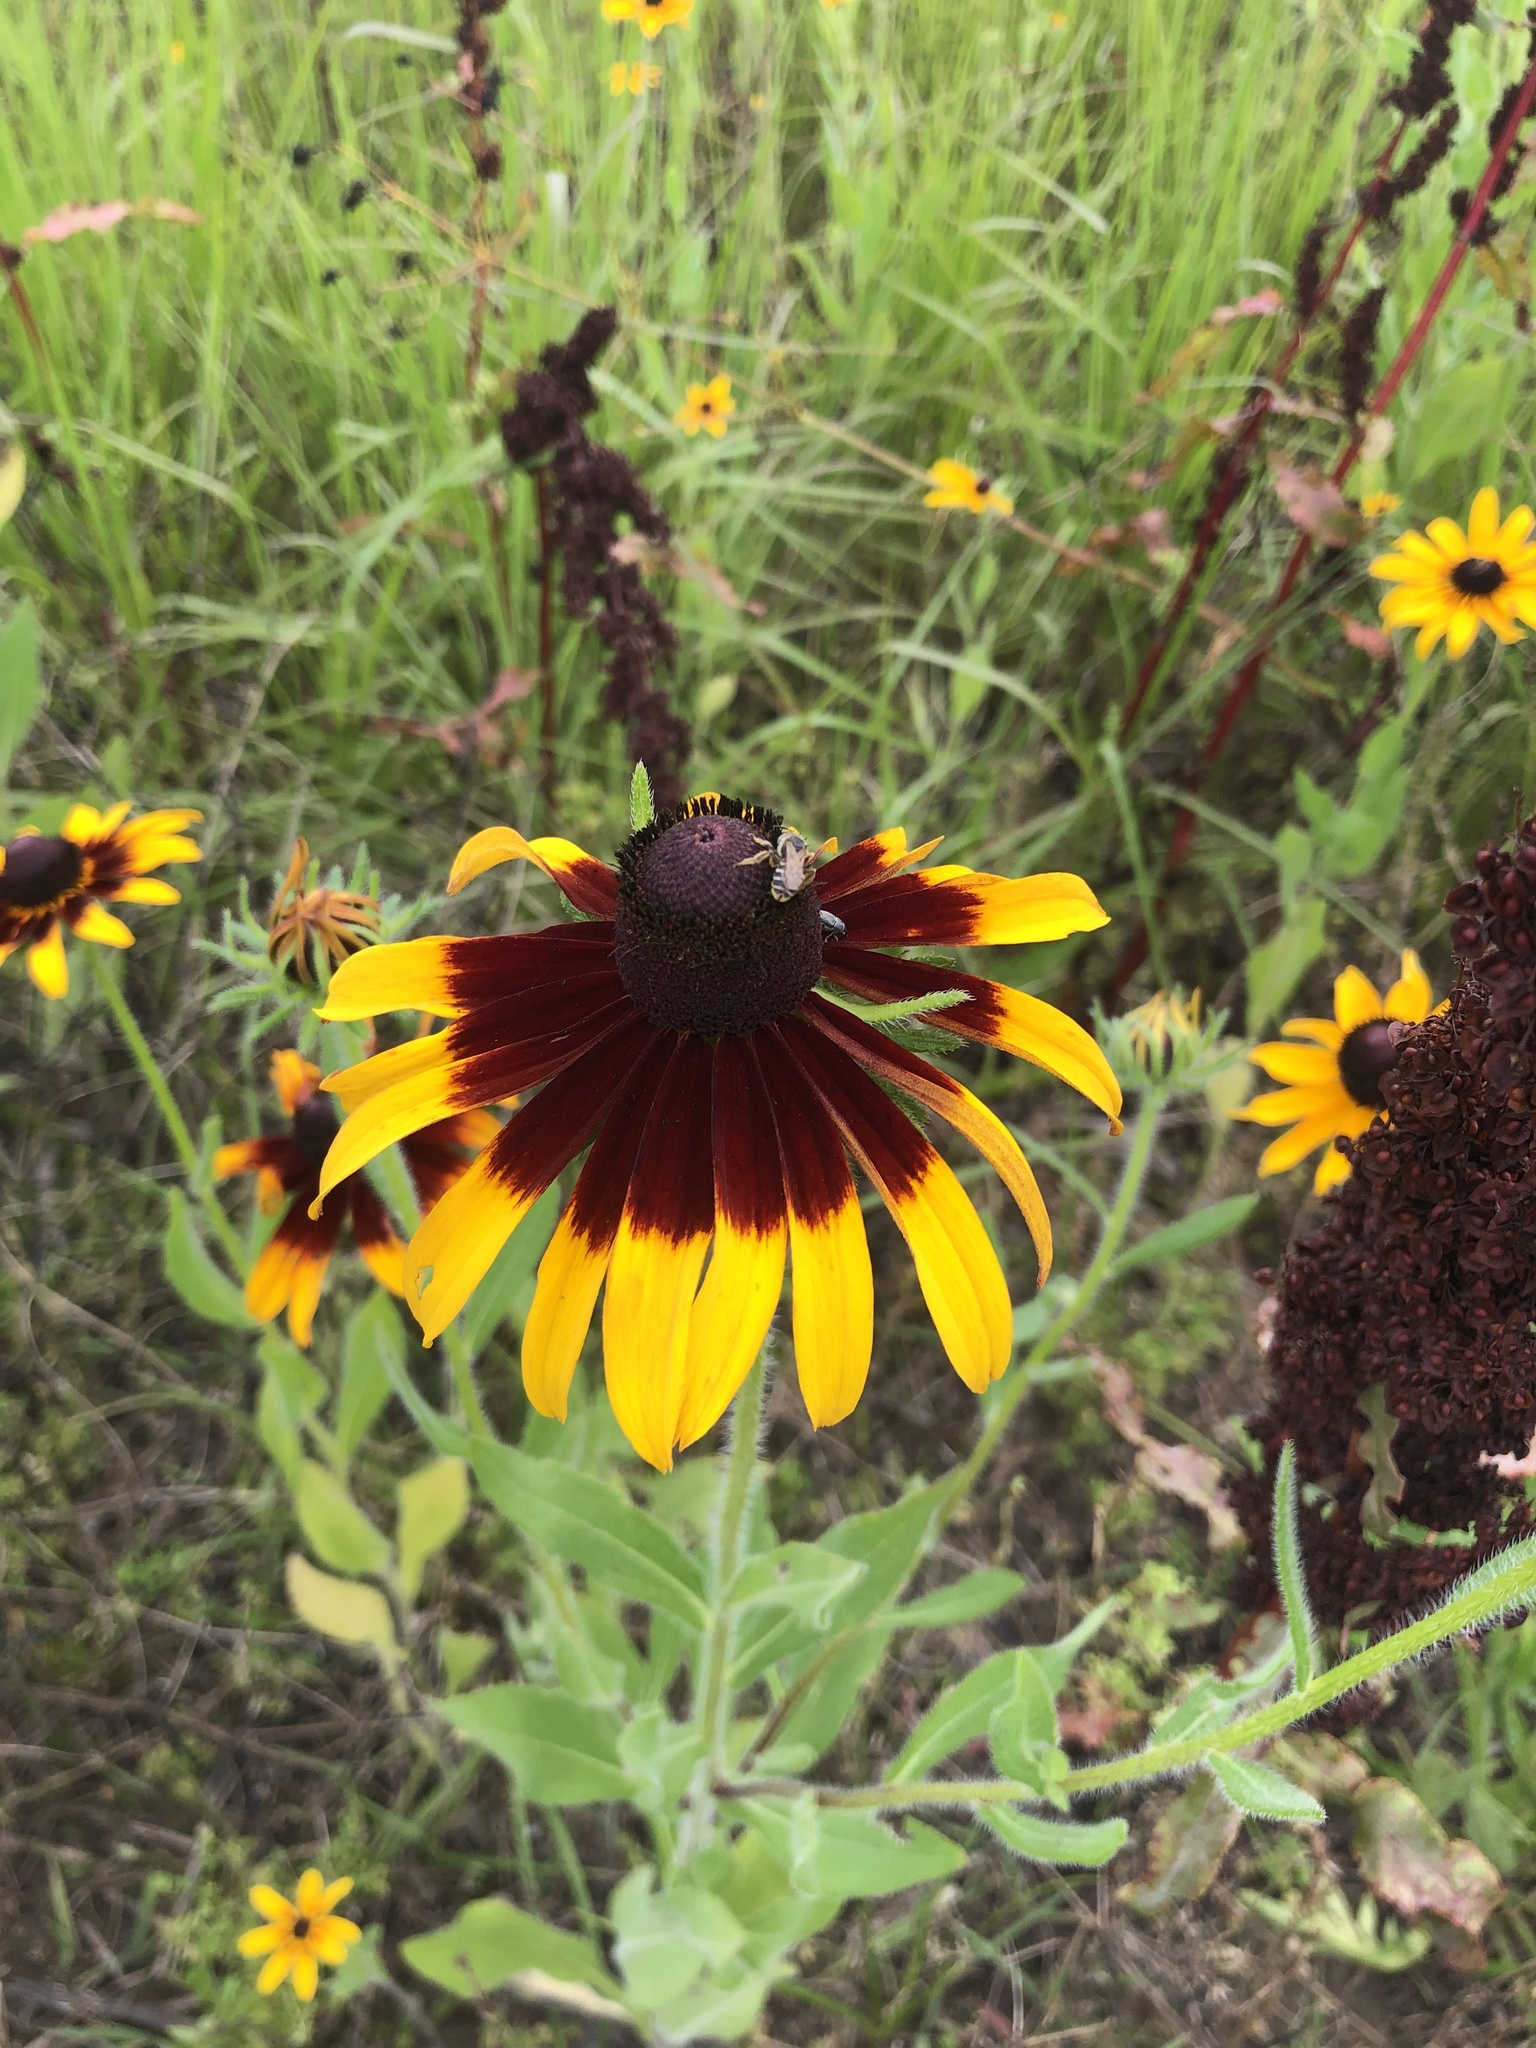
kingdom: Plantae
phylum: Tracheophyta
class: Magnoliopsida
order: Asterales
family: Asteraceae
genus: Rudbeckia
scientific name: Rudbeckia hirta
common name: Black-eyed-susan
